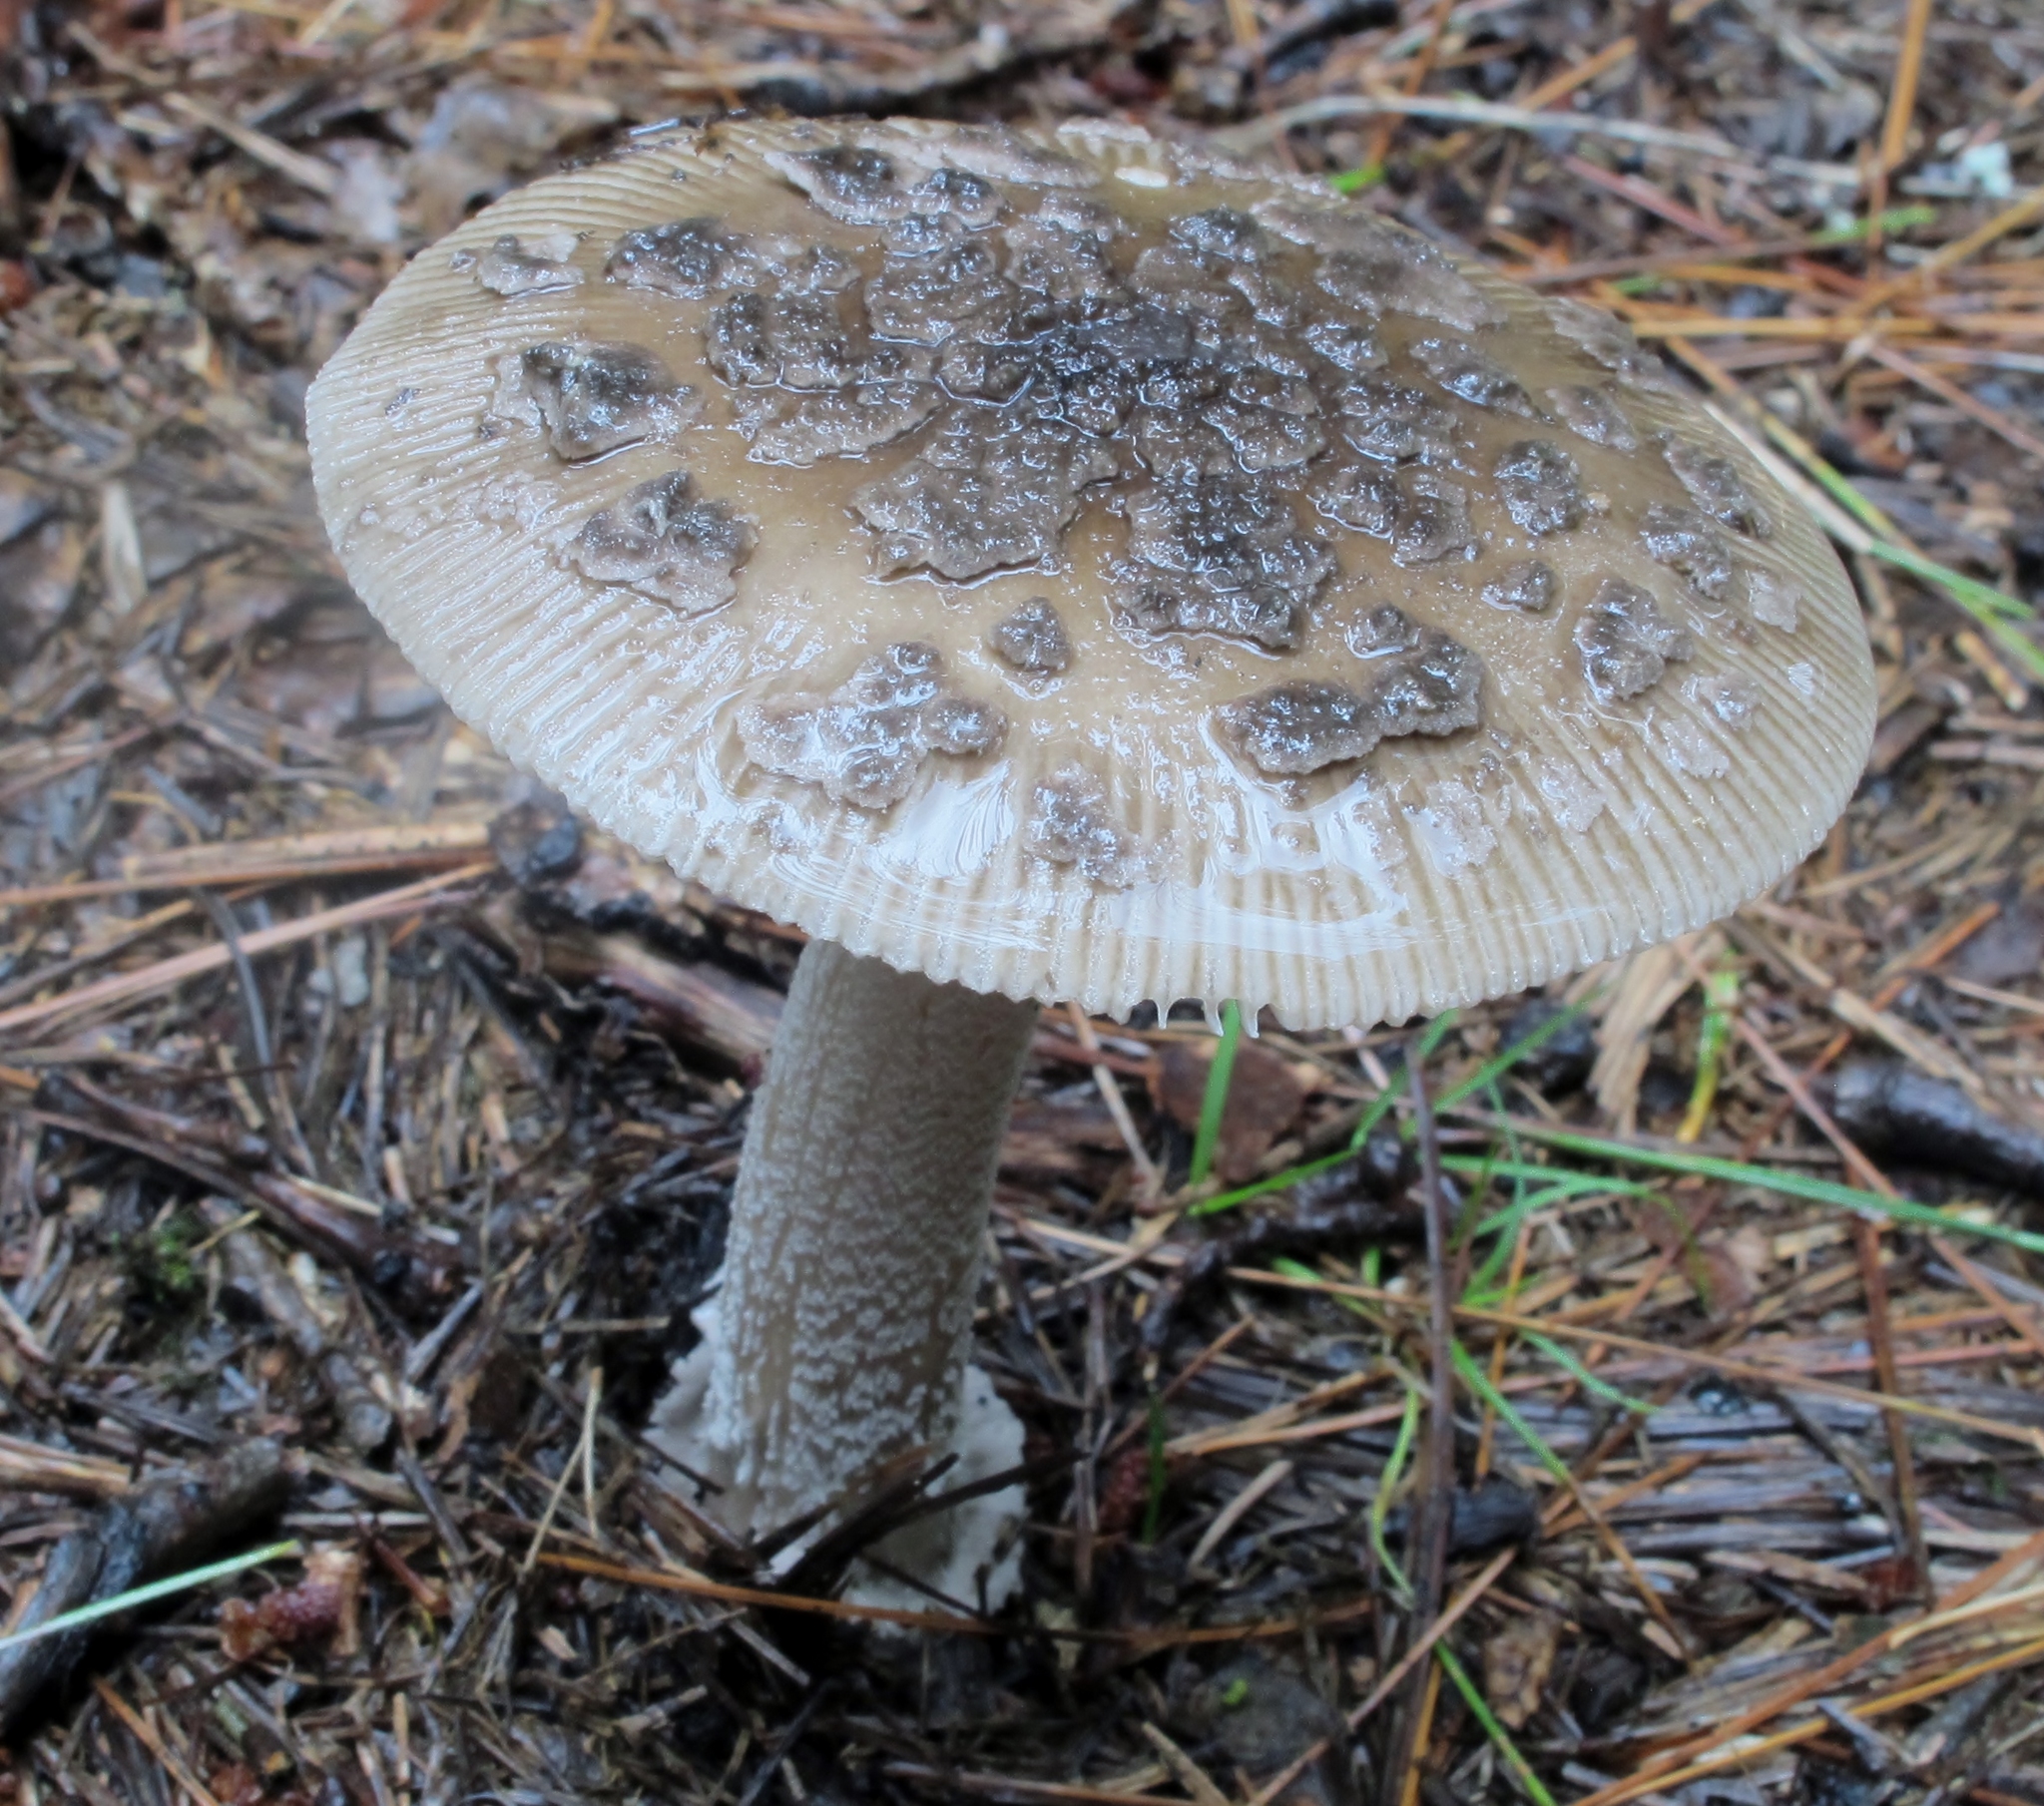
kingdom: Fungi
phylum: Basidiomycota
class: Agaricomycetes
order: Agaricales
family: Amanitaceae
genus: Amanita
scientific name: Amanita rhacopus
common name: Shaggy legged ringless amanita
